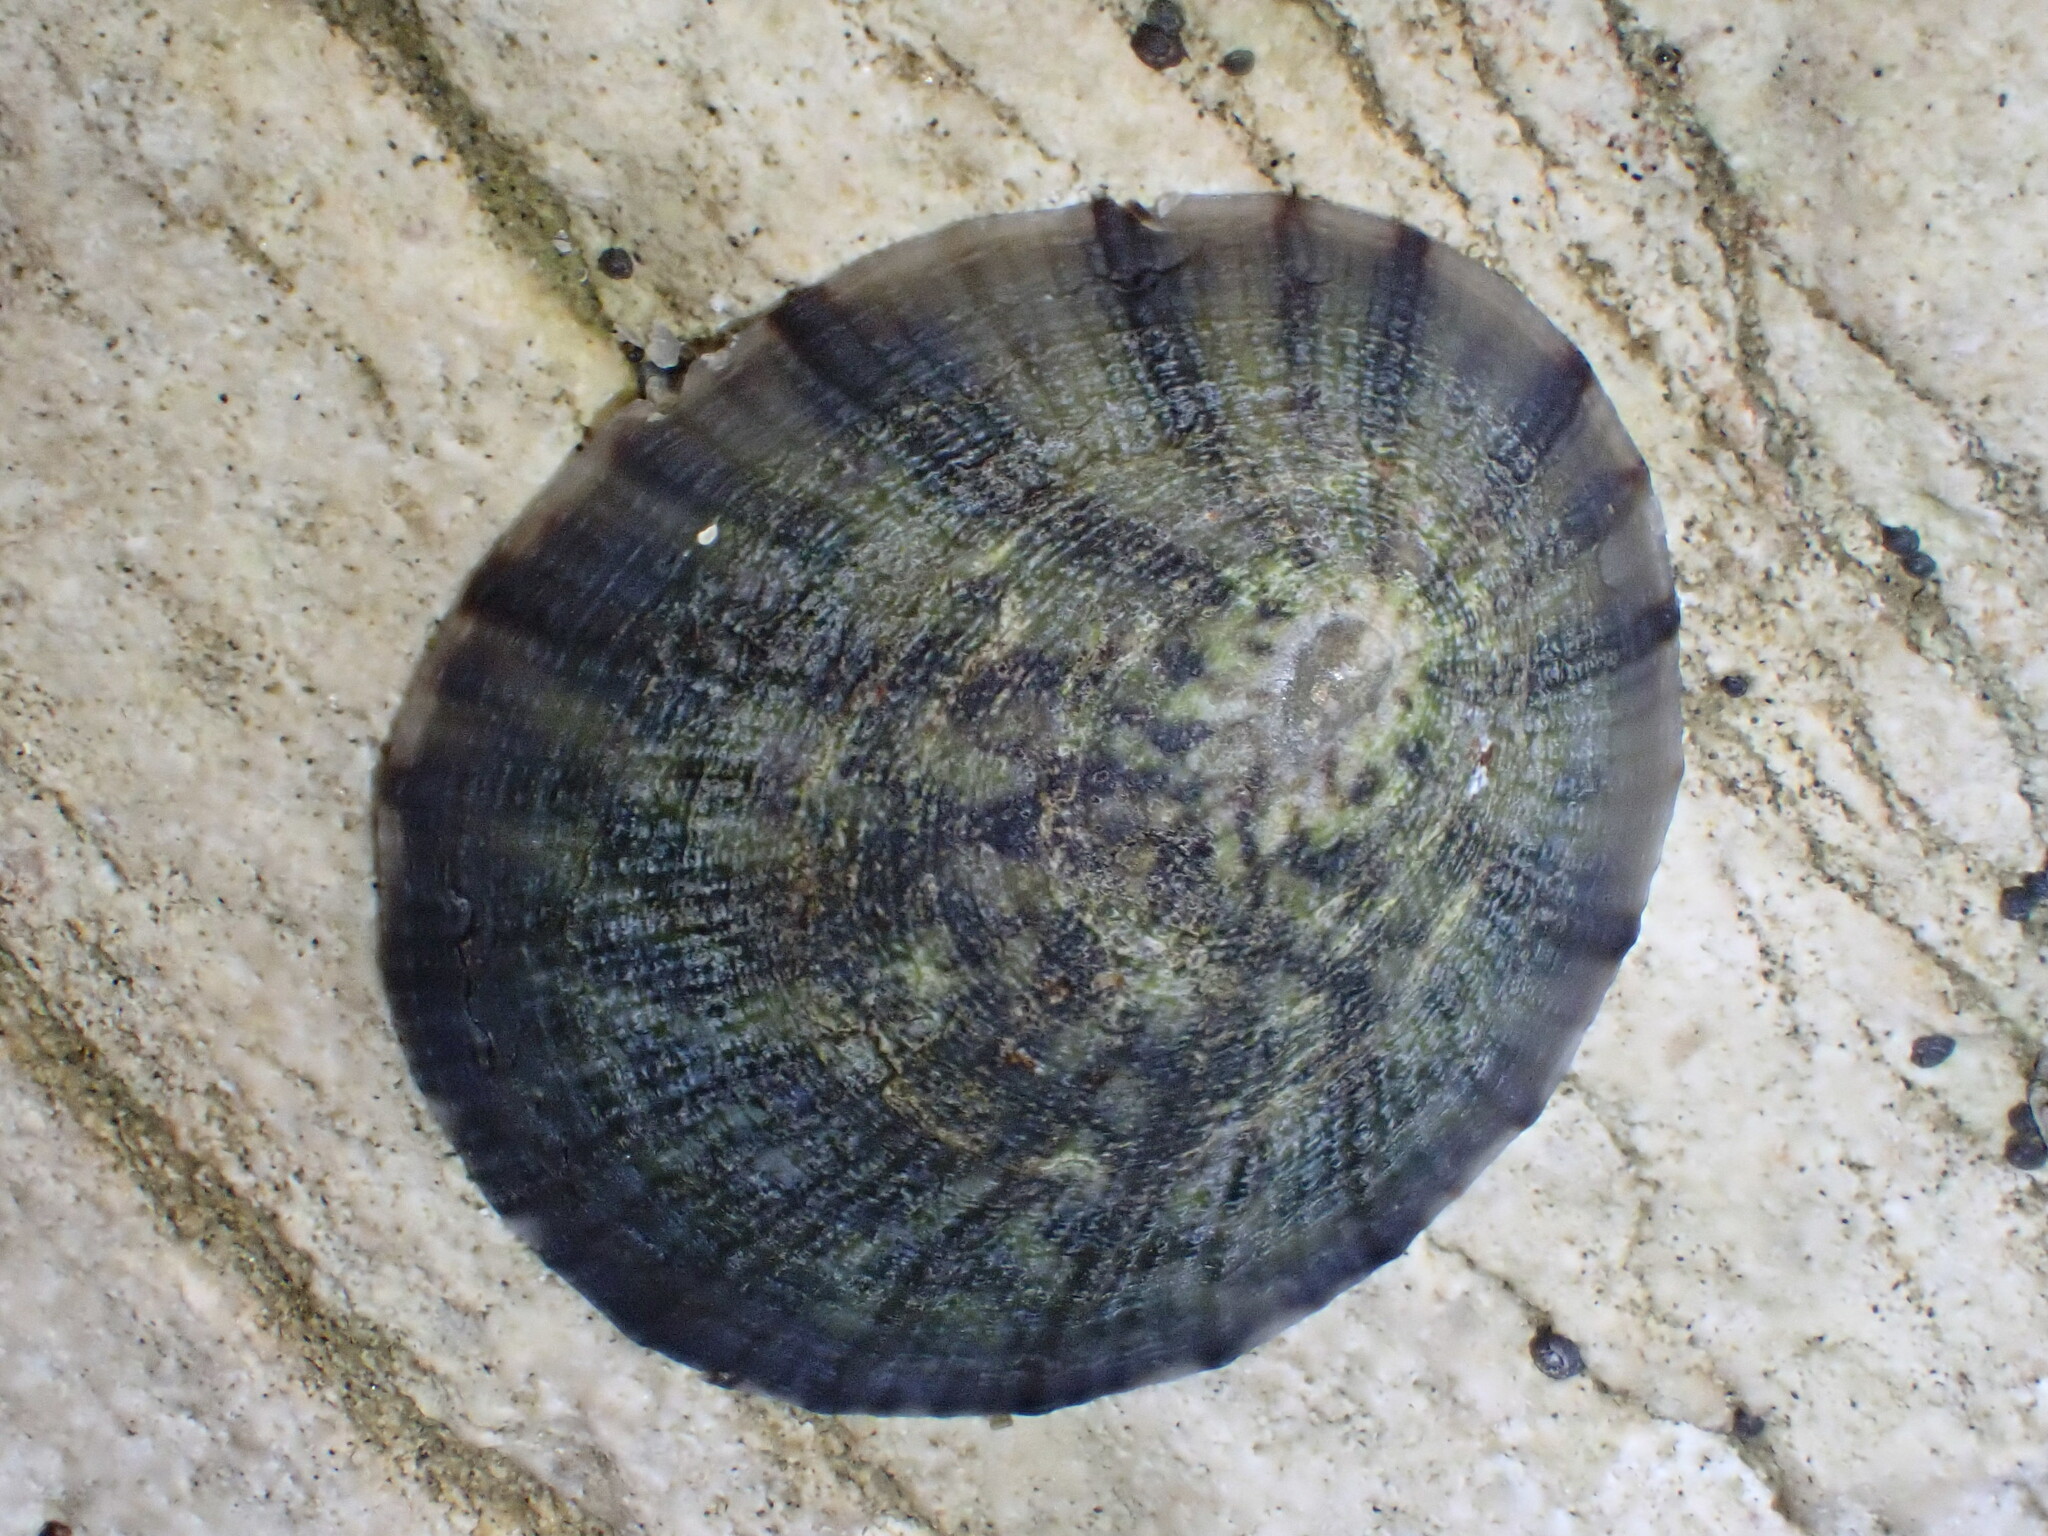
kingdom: Animalia
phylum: Mollusca
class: Gastropoda
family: Nacellidae
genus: Cellana
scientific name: Cellana radians
